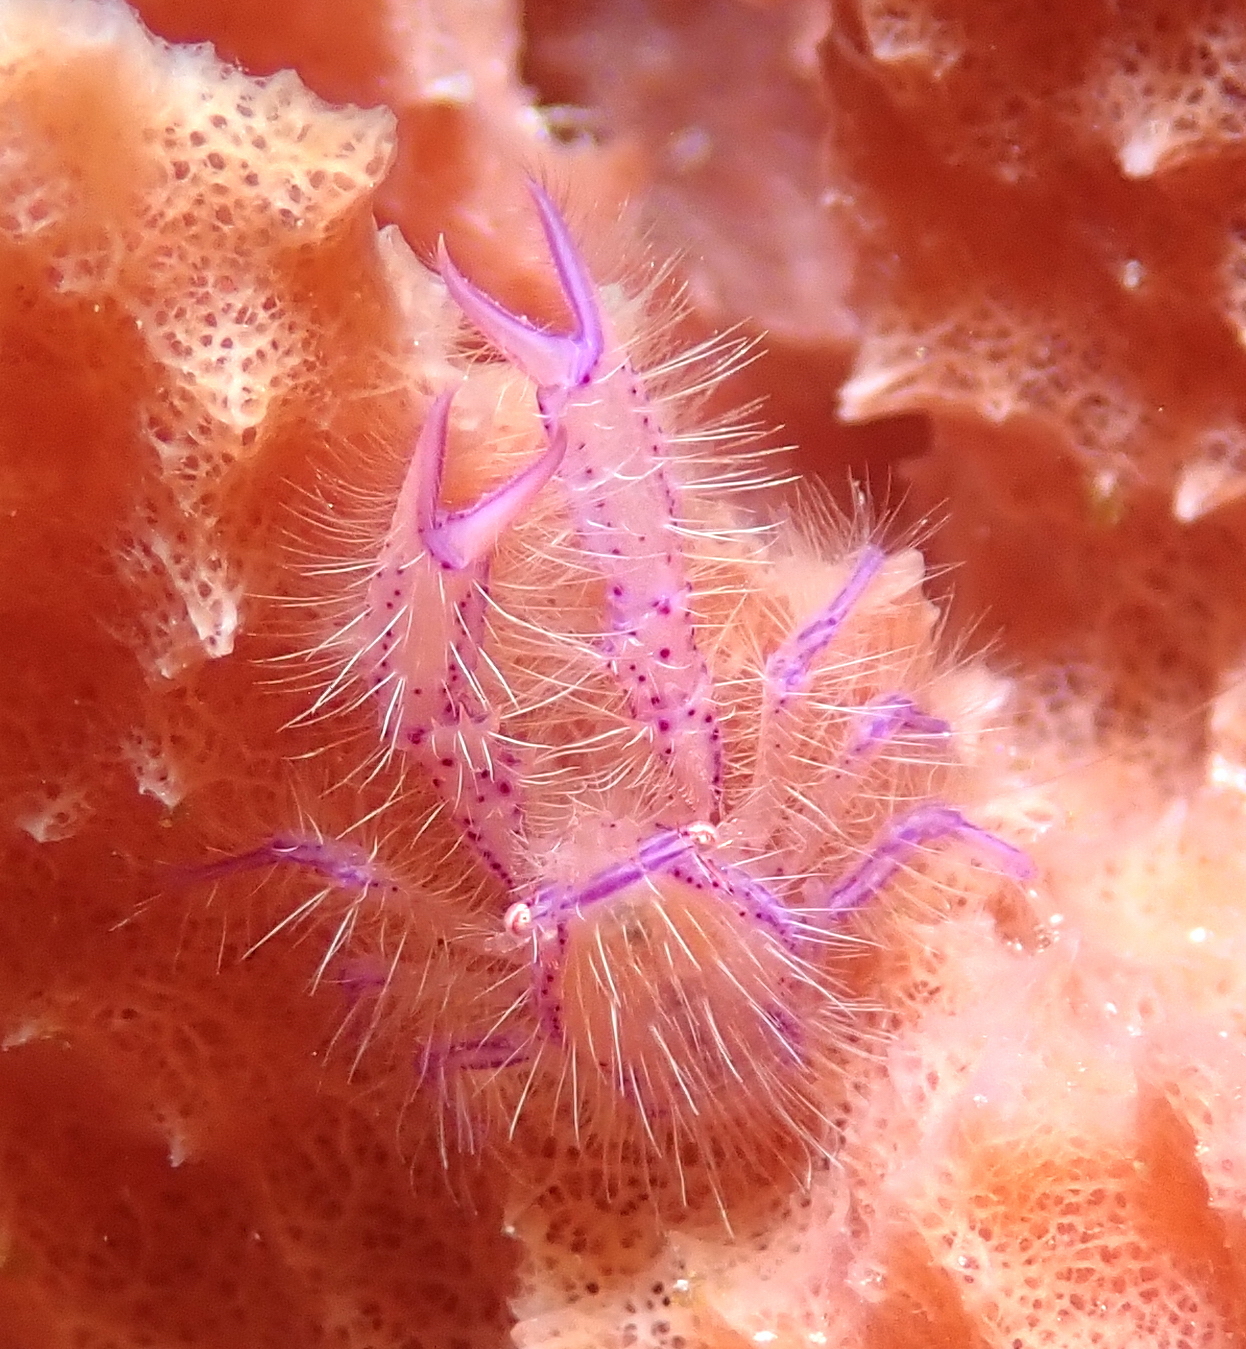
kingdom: Animalia
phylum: Arthropoda
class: Malacostraca
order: Decapoda
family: Galatheidae
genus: Lauriea
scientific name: Lauriea siagiani
